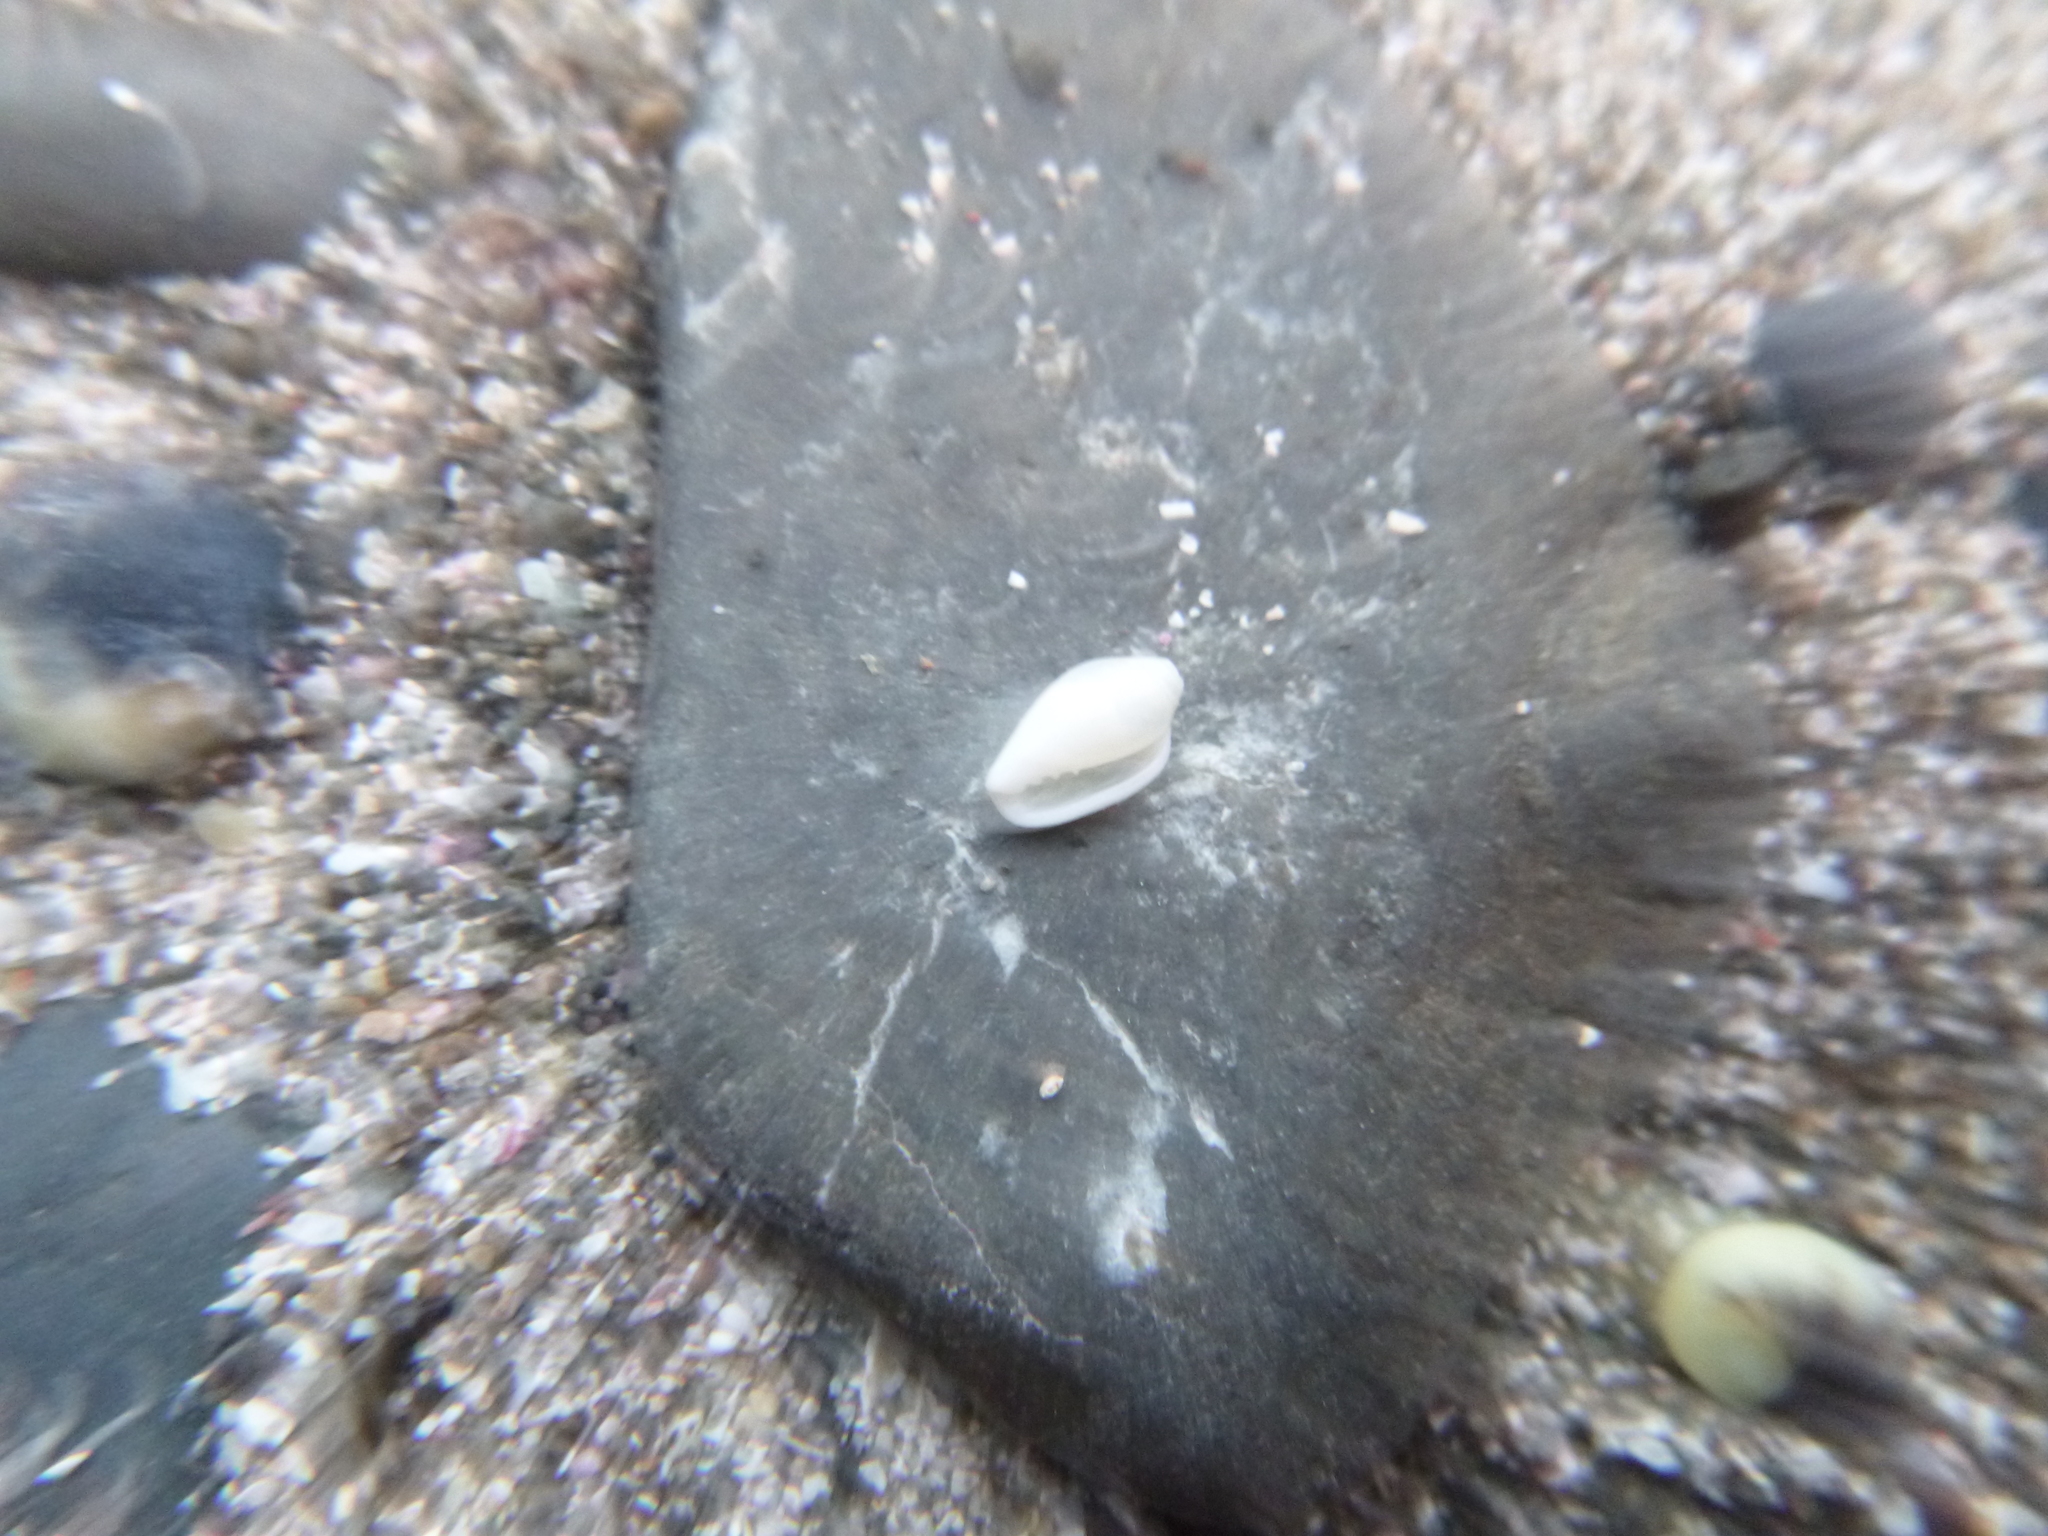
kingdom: Animalia
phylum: Mollusca
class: Gastropoda
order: Neogastropoda
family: Marginellidae
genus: Mesoginella
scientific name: Mesoginella koma
